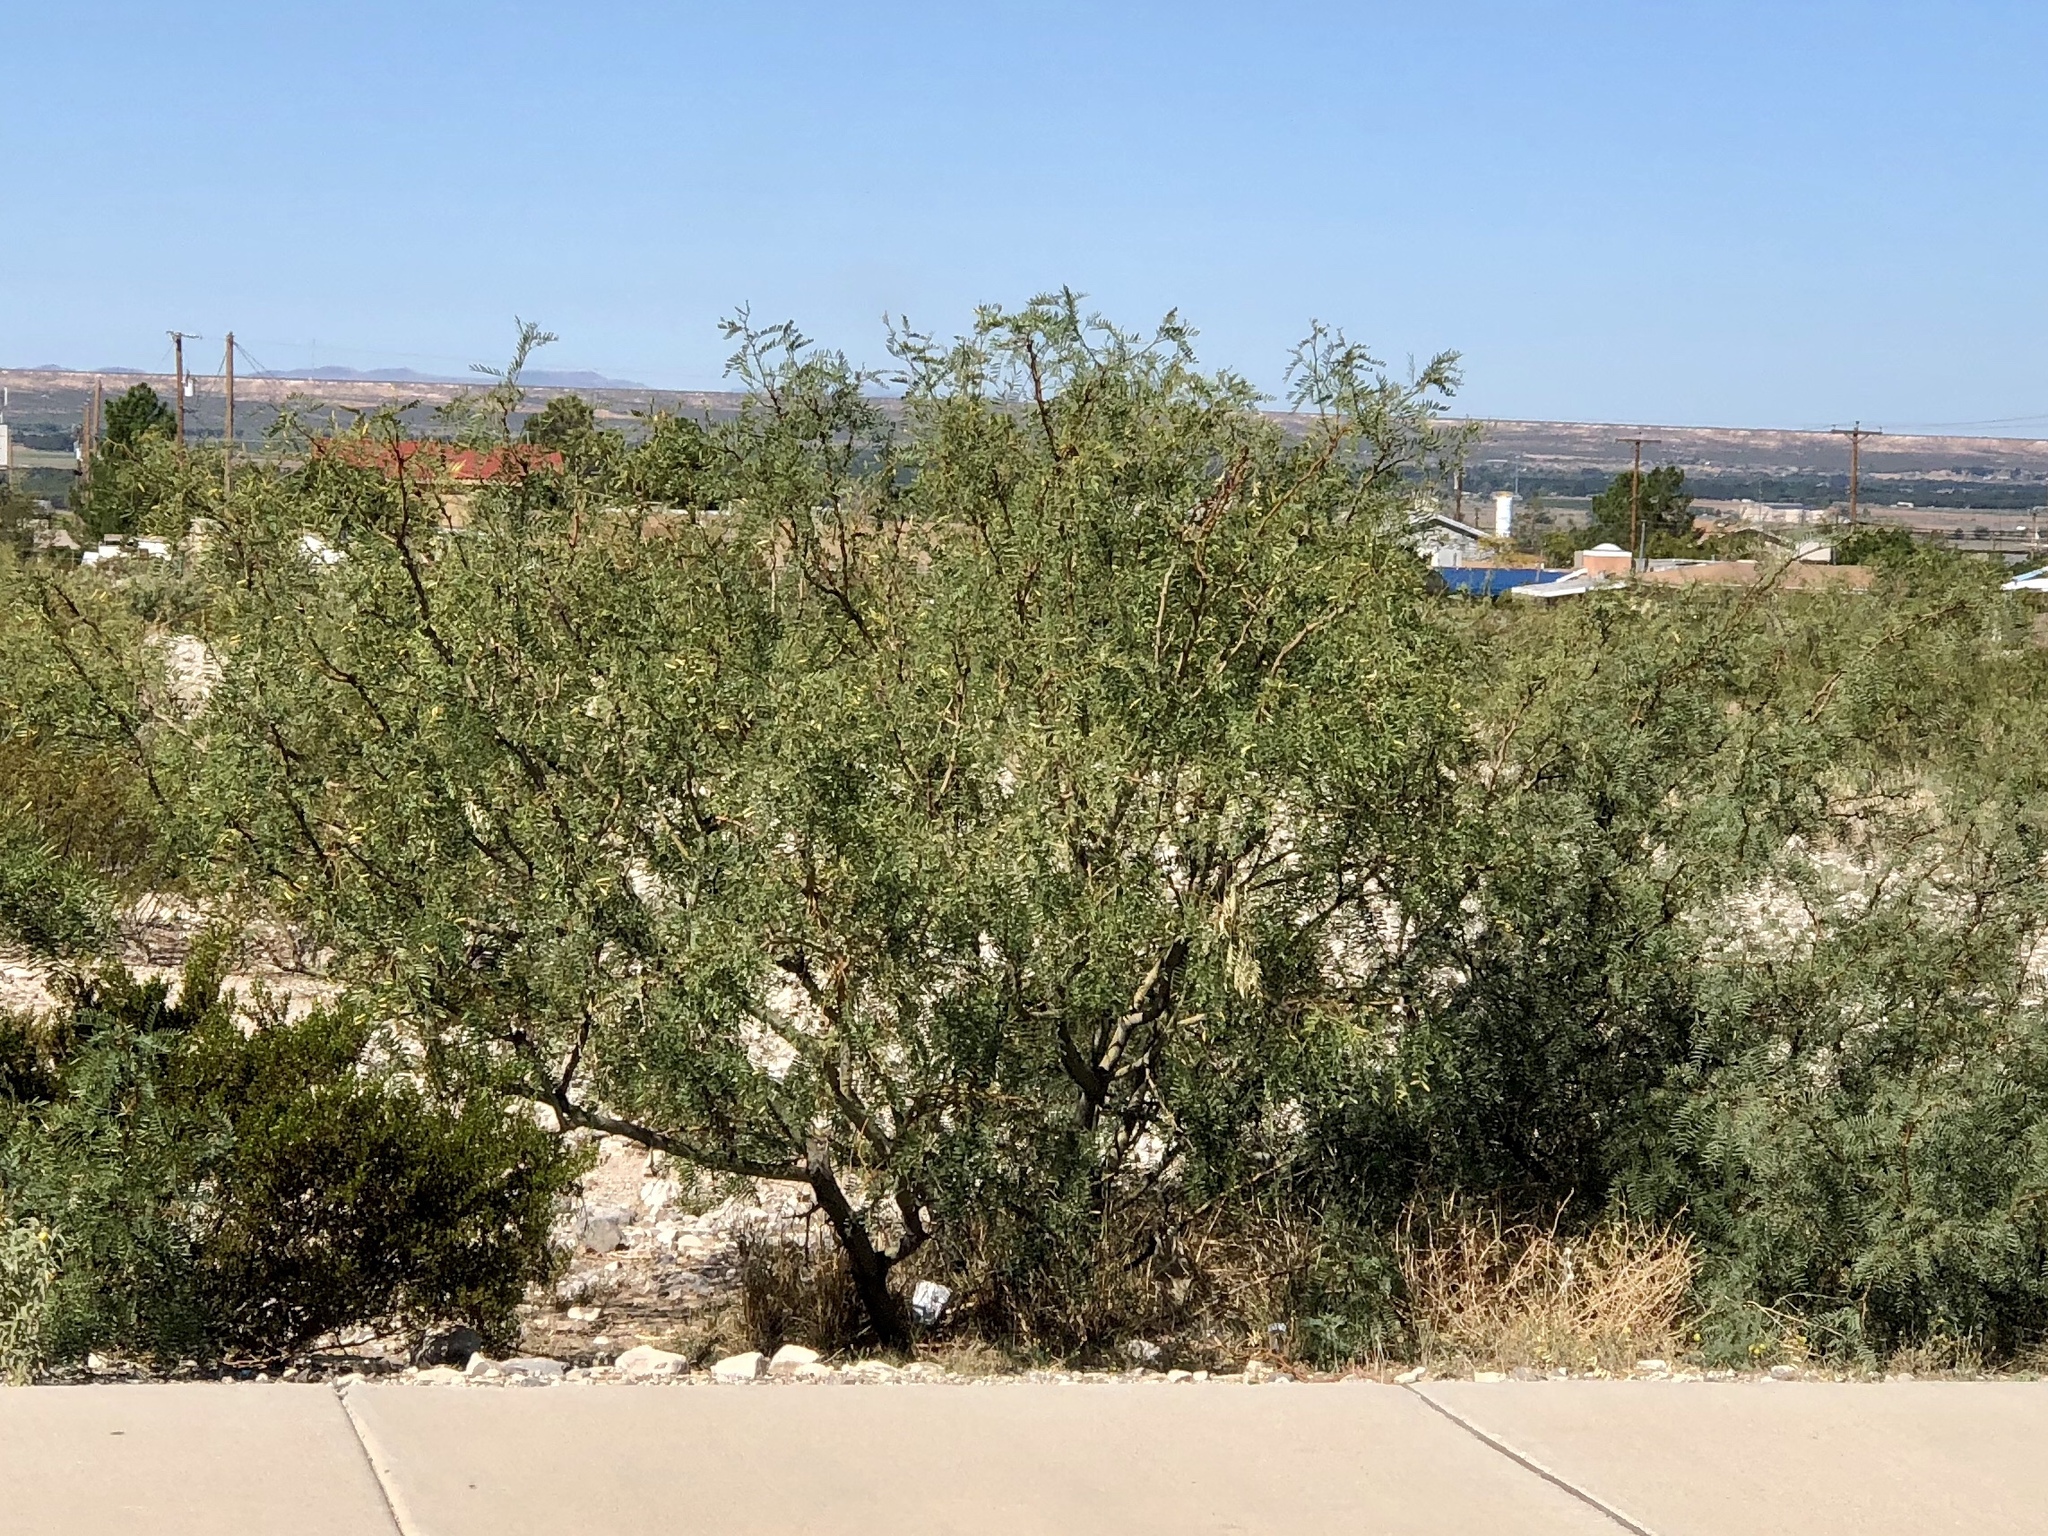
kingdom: Plantae
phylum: Tracheophyta
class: Magnoliopsida
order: Fabales
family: Fabaceae
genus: Prosopis
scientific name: Prosopis glandulosa
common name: Honey mesquite
